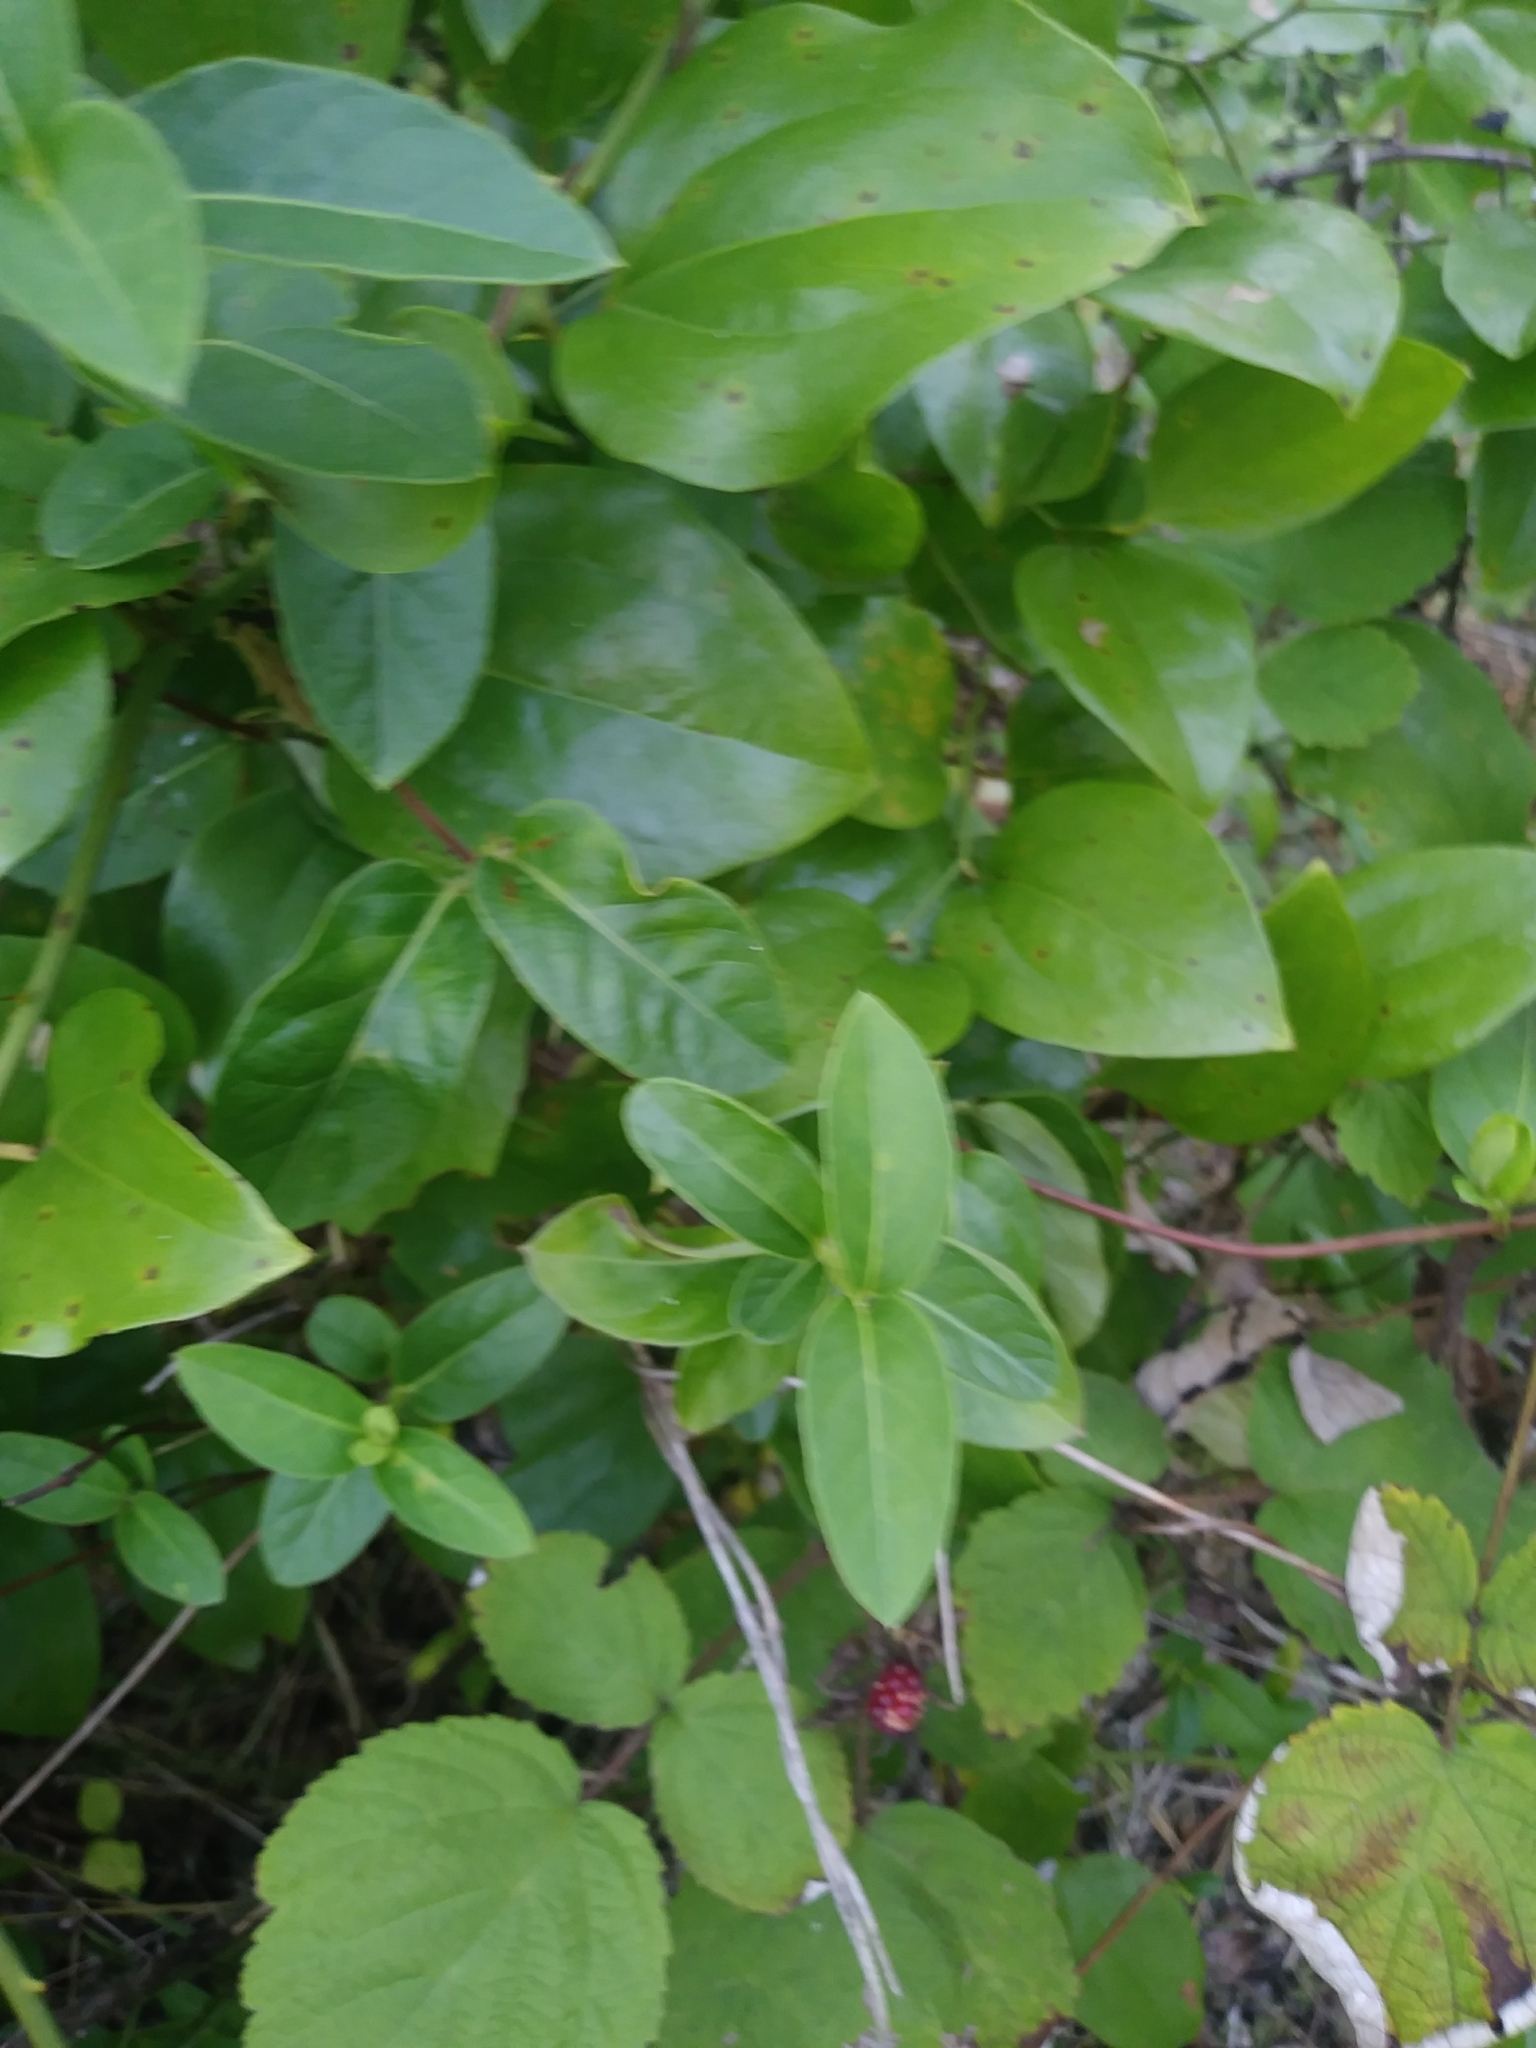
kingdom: Plantae
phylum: Tracheophyta
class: Magnoliopsida
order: Dipsacales
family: Caprifoliaceae
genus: Lonicera
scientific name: Lonicera japonica
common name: Japanese honeysuckle
